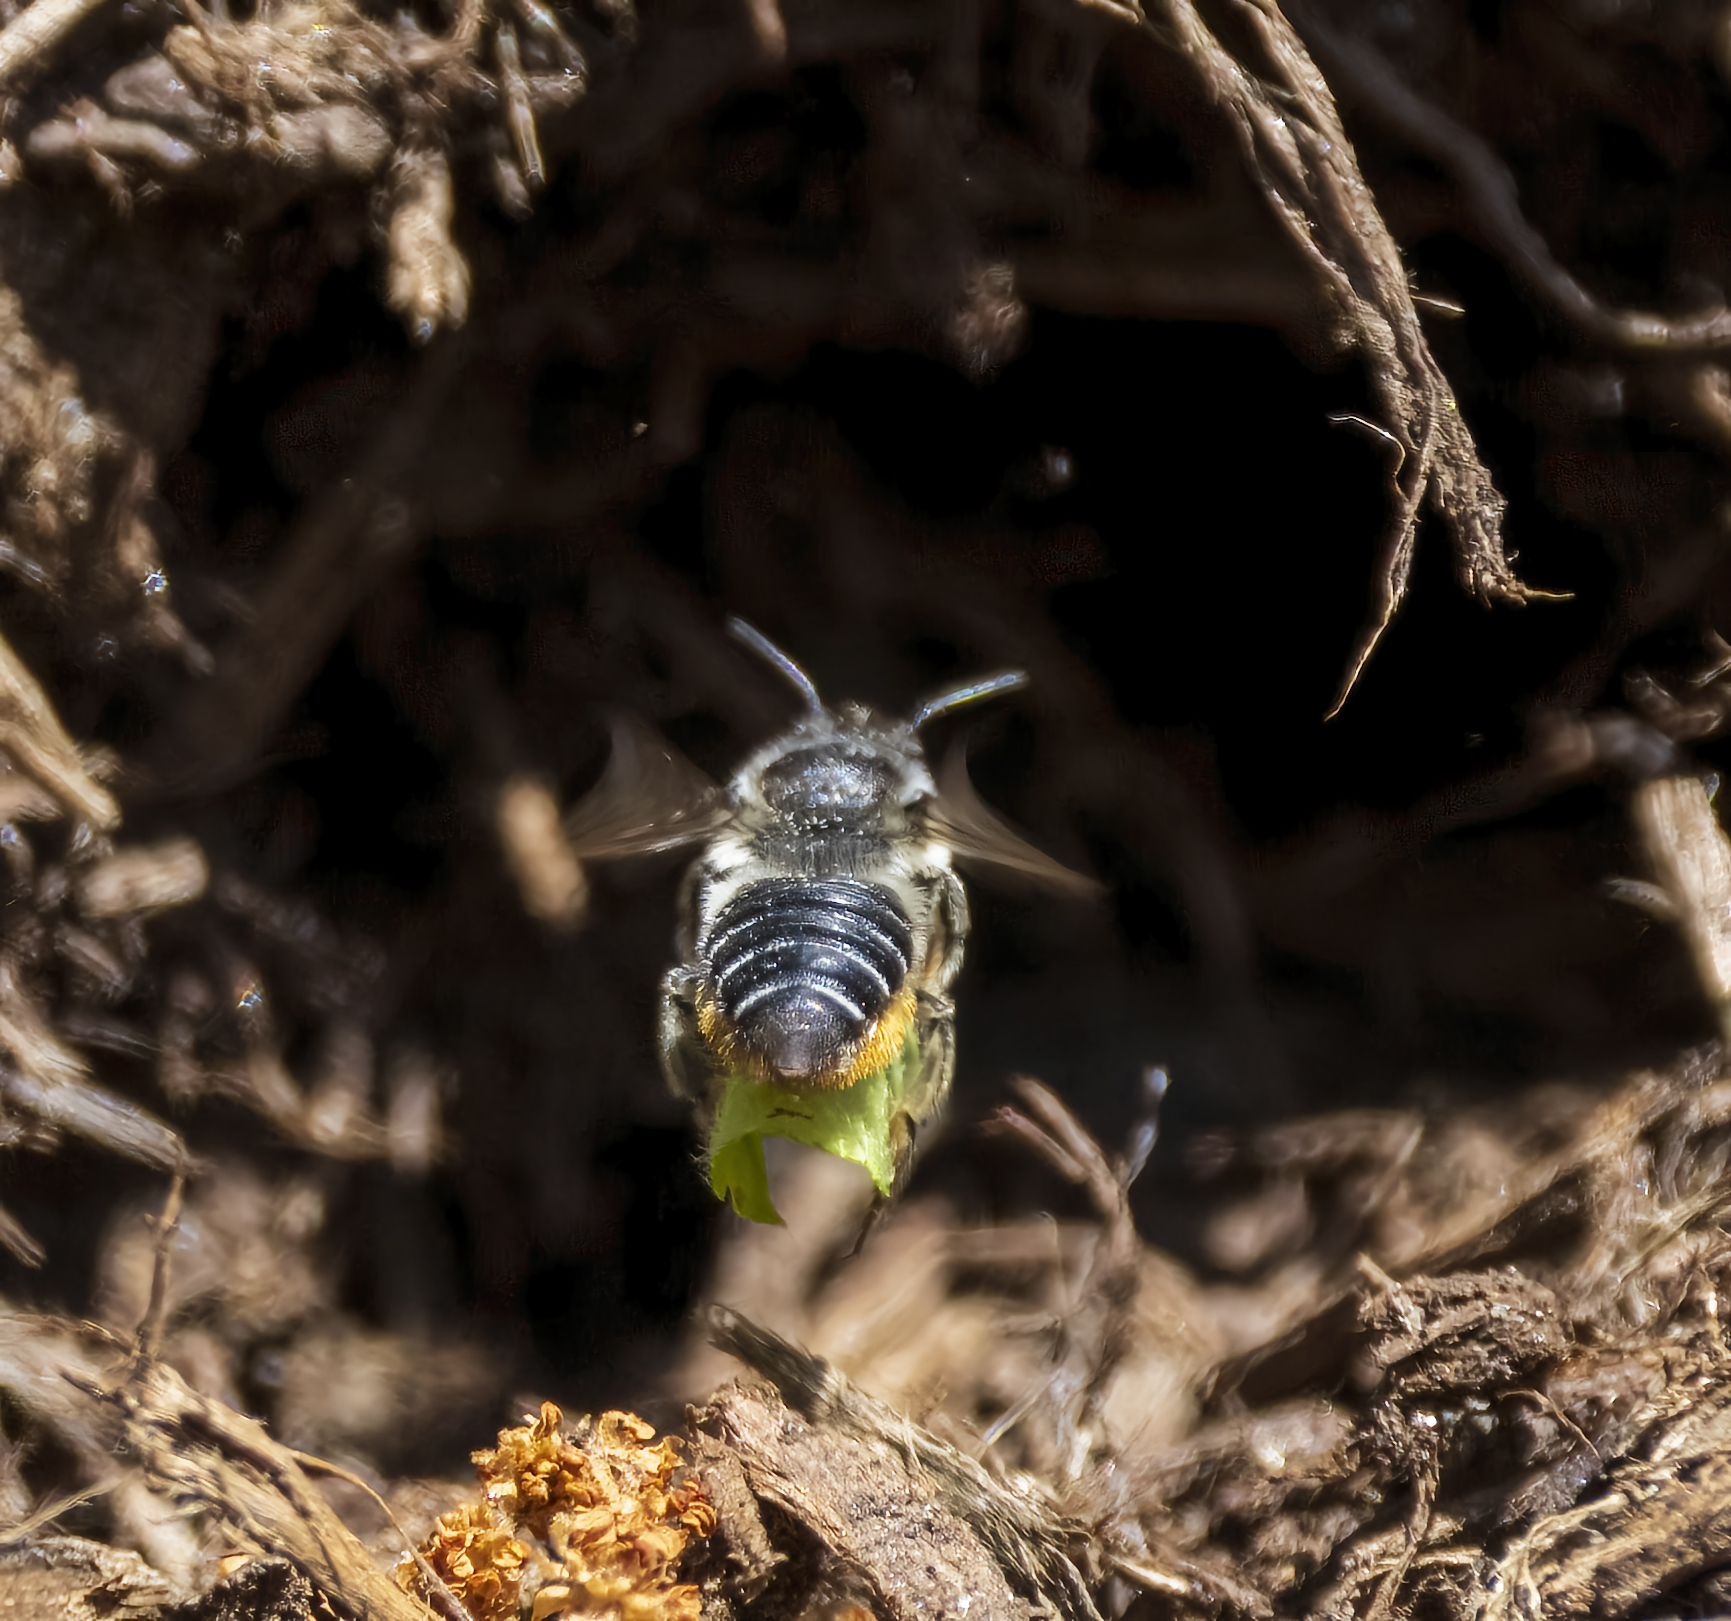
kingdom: Animalia
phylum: Arthropoda
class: Insecta
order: Hymenoptera
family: Megachilidae
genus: Megachile
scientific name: Megachile
